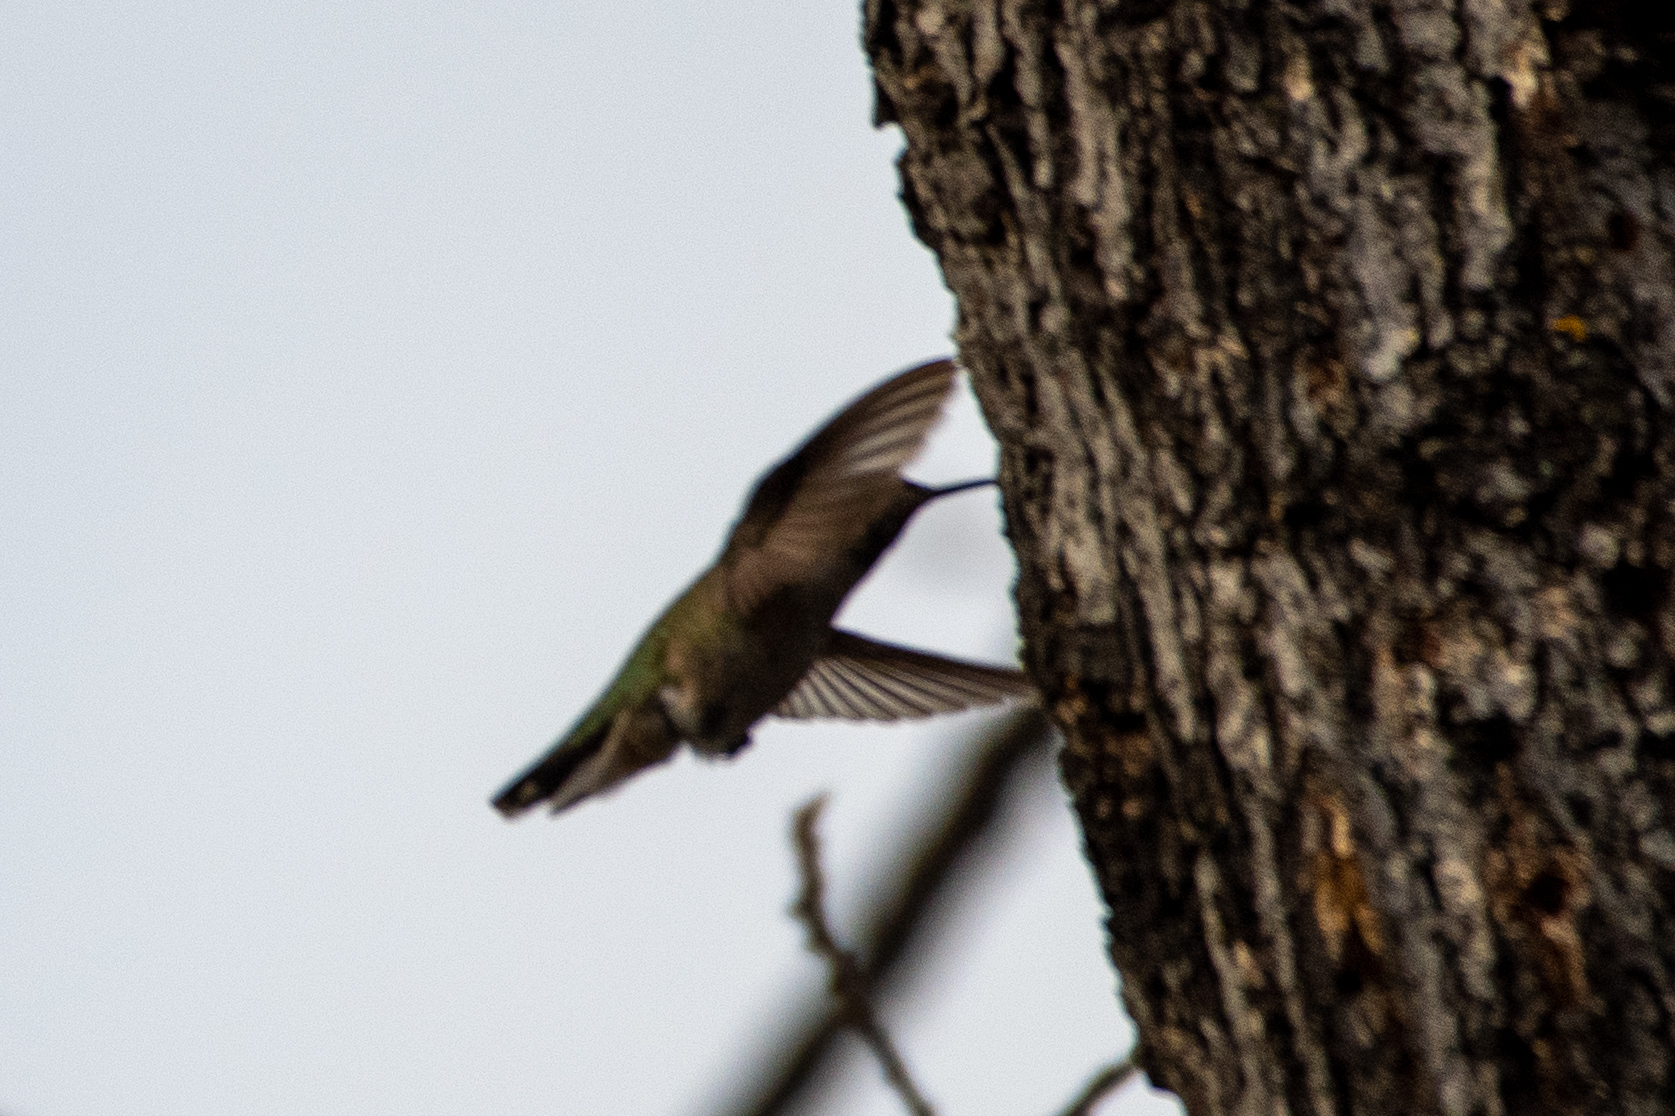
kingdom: Animalia
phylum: Chordata
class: Aves
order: Apodiformes
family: Trochilidae
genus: Calypte
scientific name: Calypte anna
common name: Anna's hummingbird
